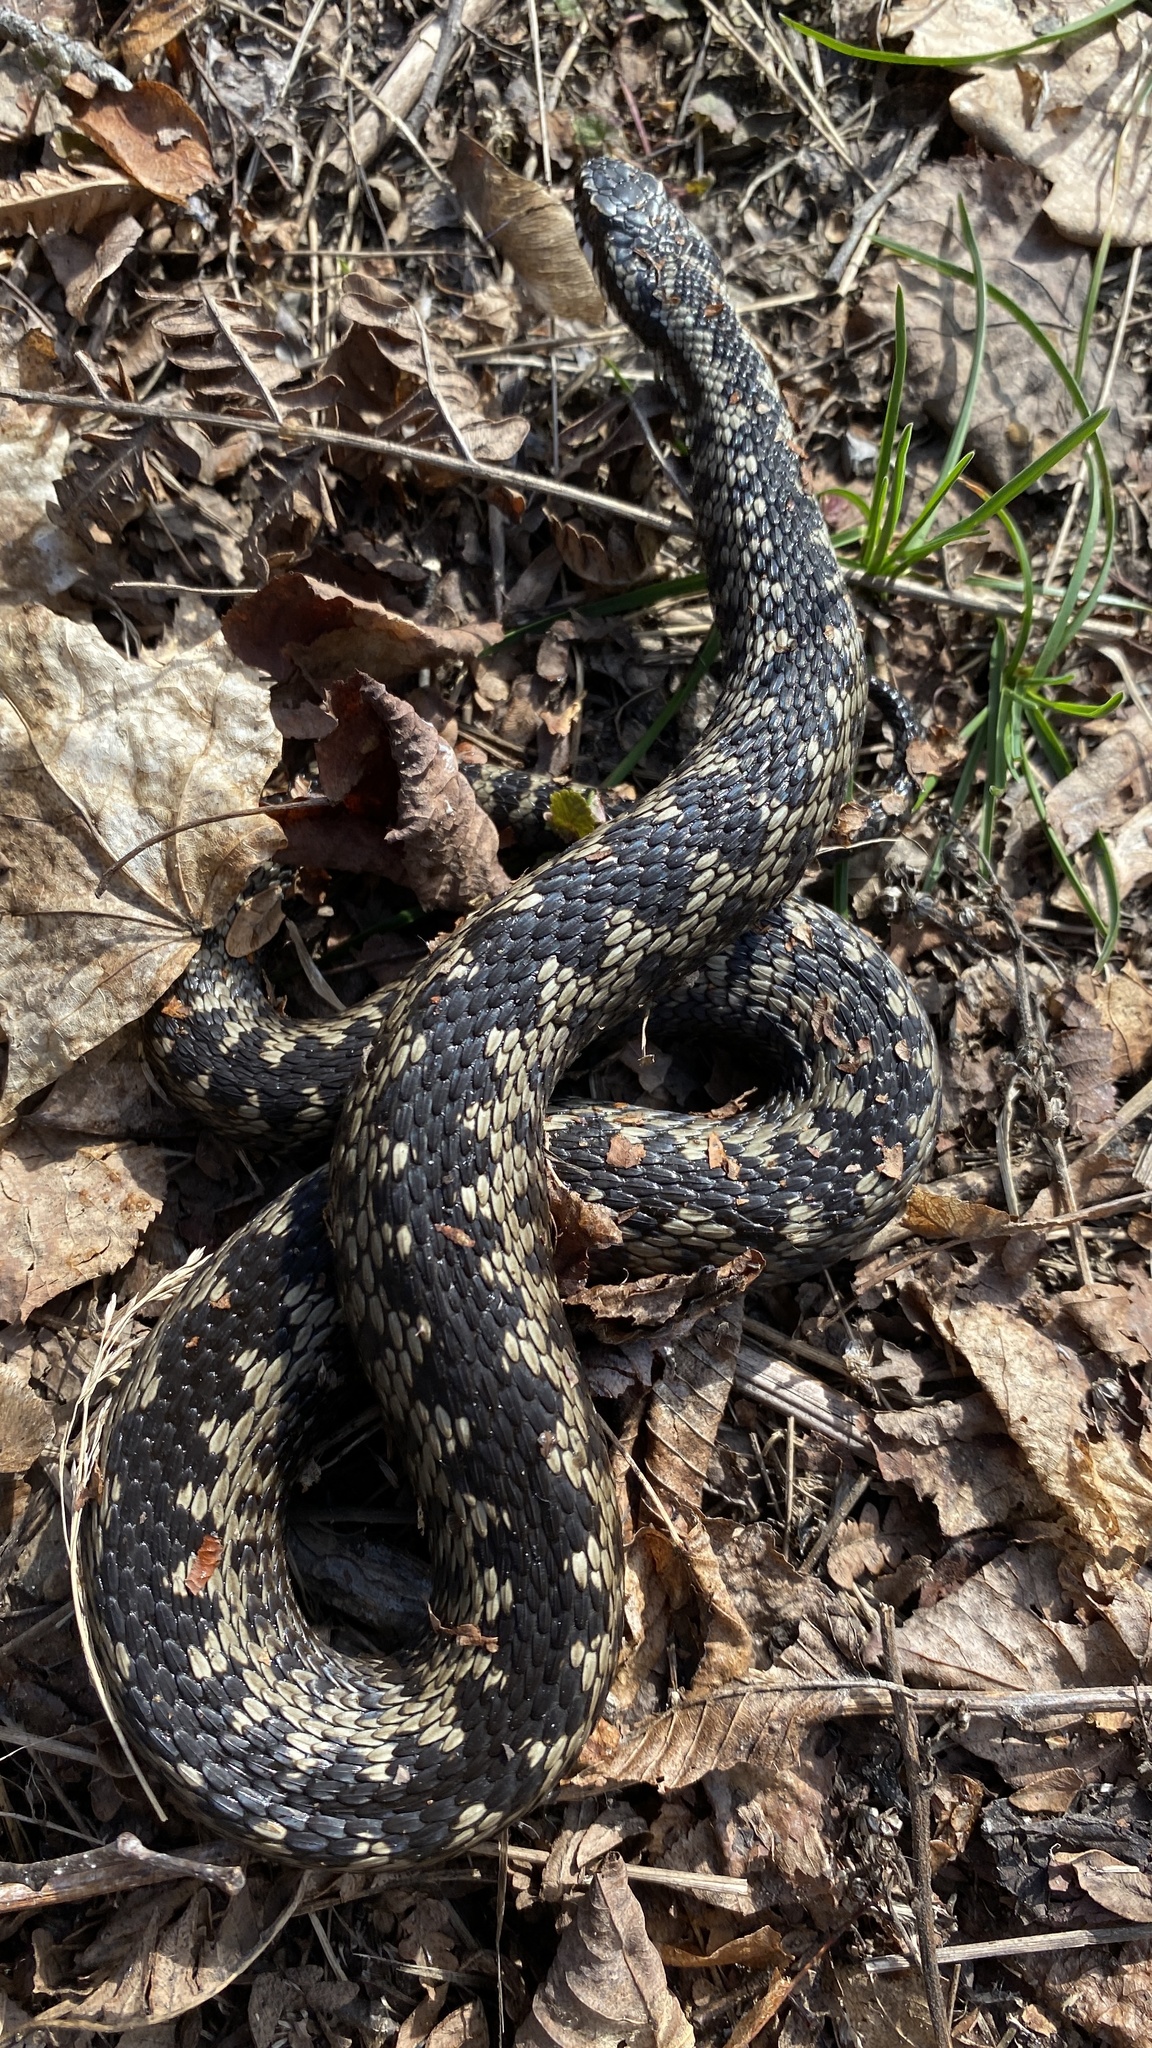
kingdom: Animalia
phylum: Chordata
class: Squamata
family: Viperidae
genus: Vipera
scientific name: Vipera berus
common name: Adder
